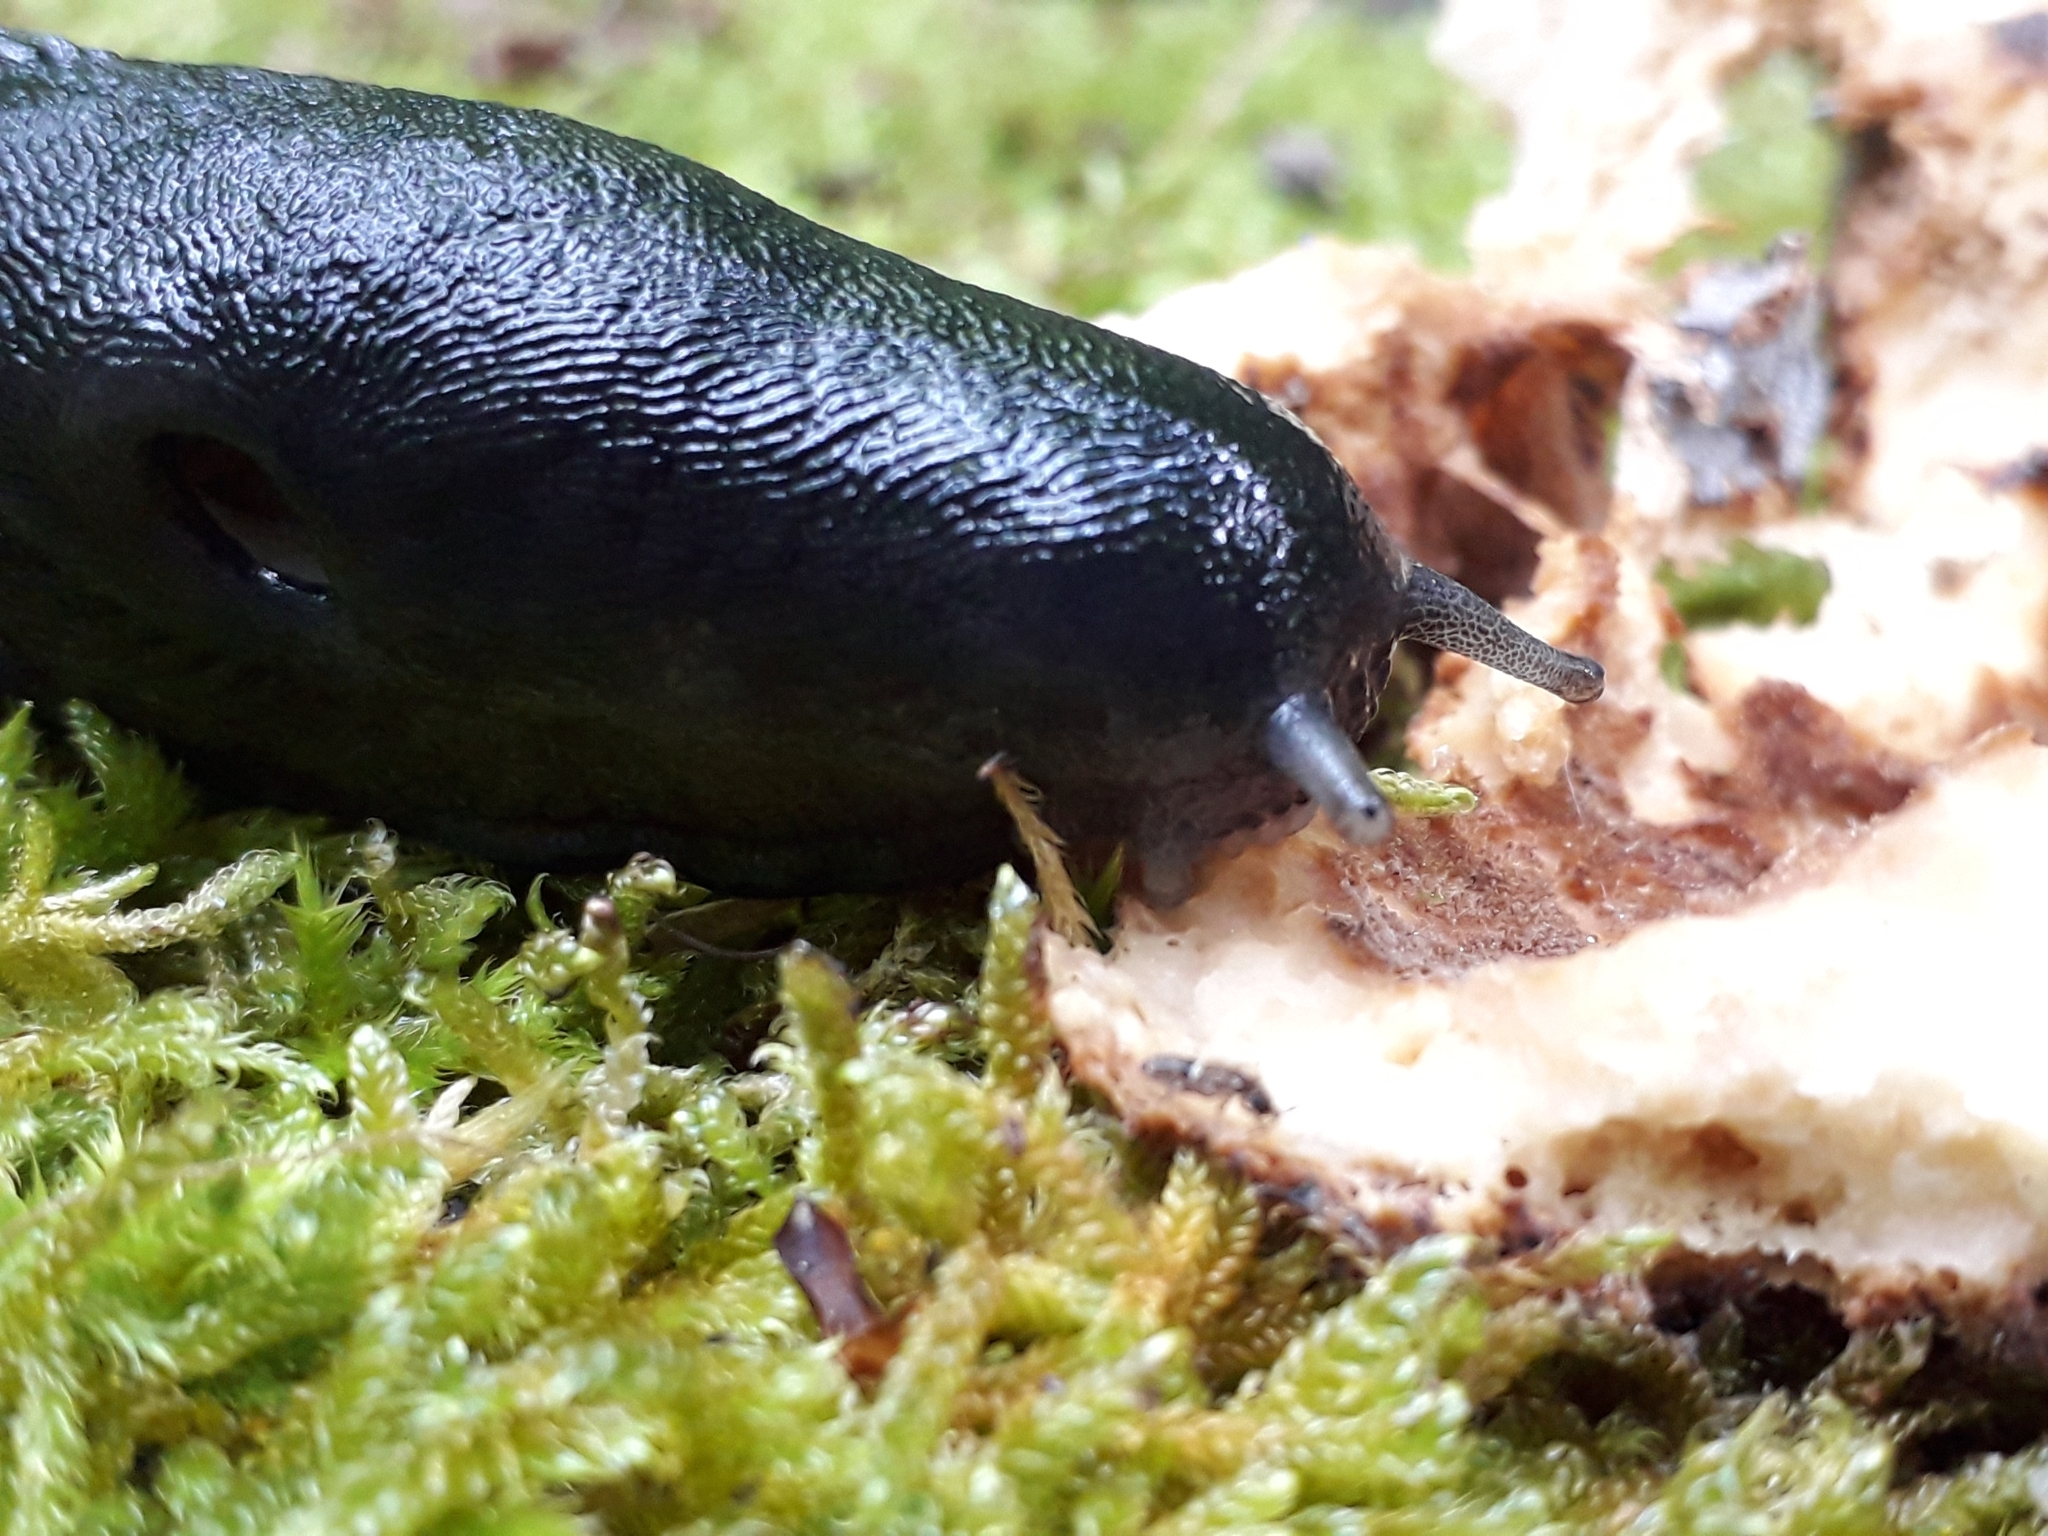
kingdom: Animalia
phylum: Mollusca
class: Gastropoda
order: Stylommatophora
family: Limacidae
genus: Limax
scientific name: Limax cinereoniger
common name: Ash-black slug
